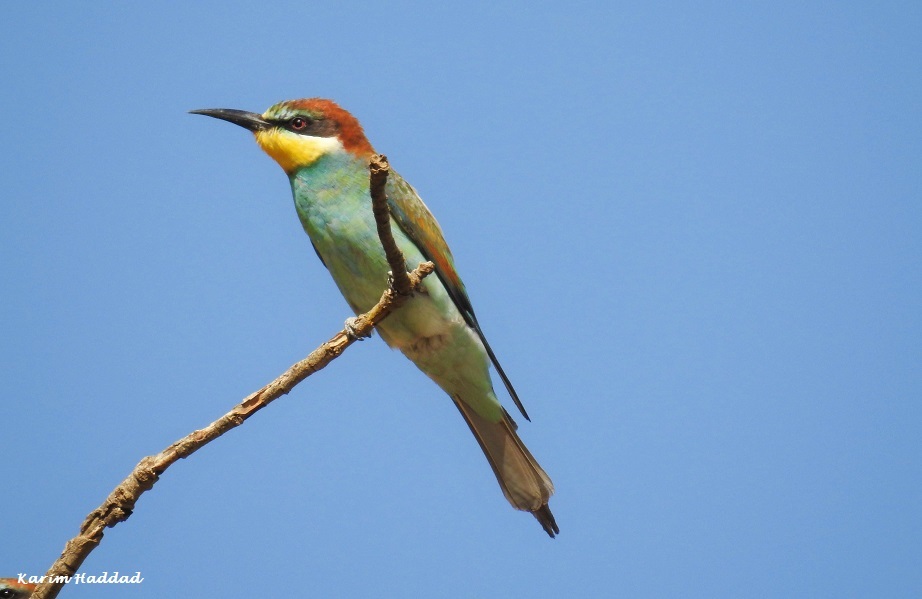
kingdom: Animalia
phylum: Chordata
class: Aves
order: Coraciiformes
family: Meropidae
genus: Merops
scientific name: Merops apiaster
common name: European bee-eater
